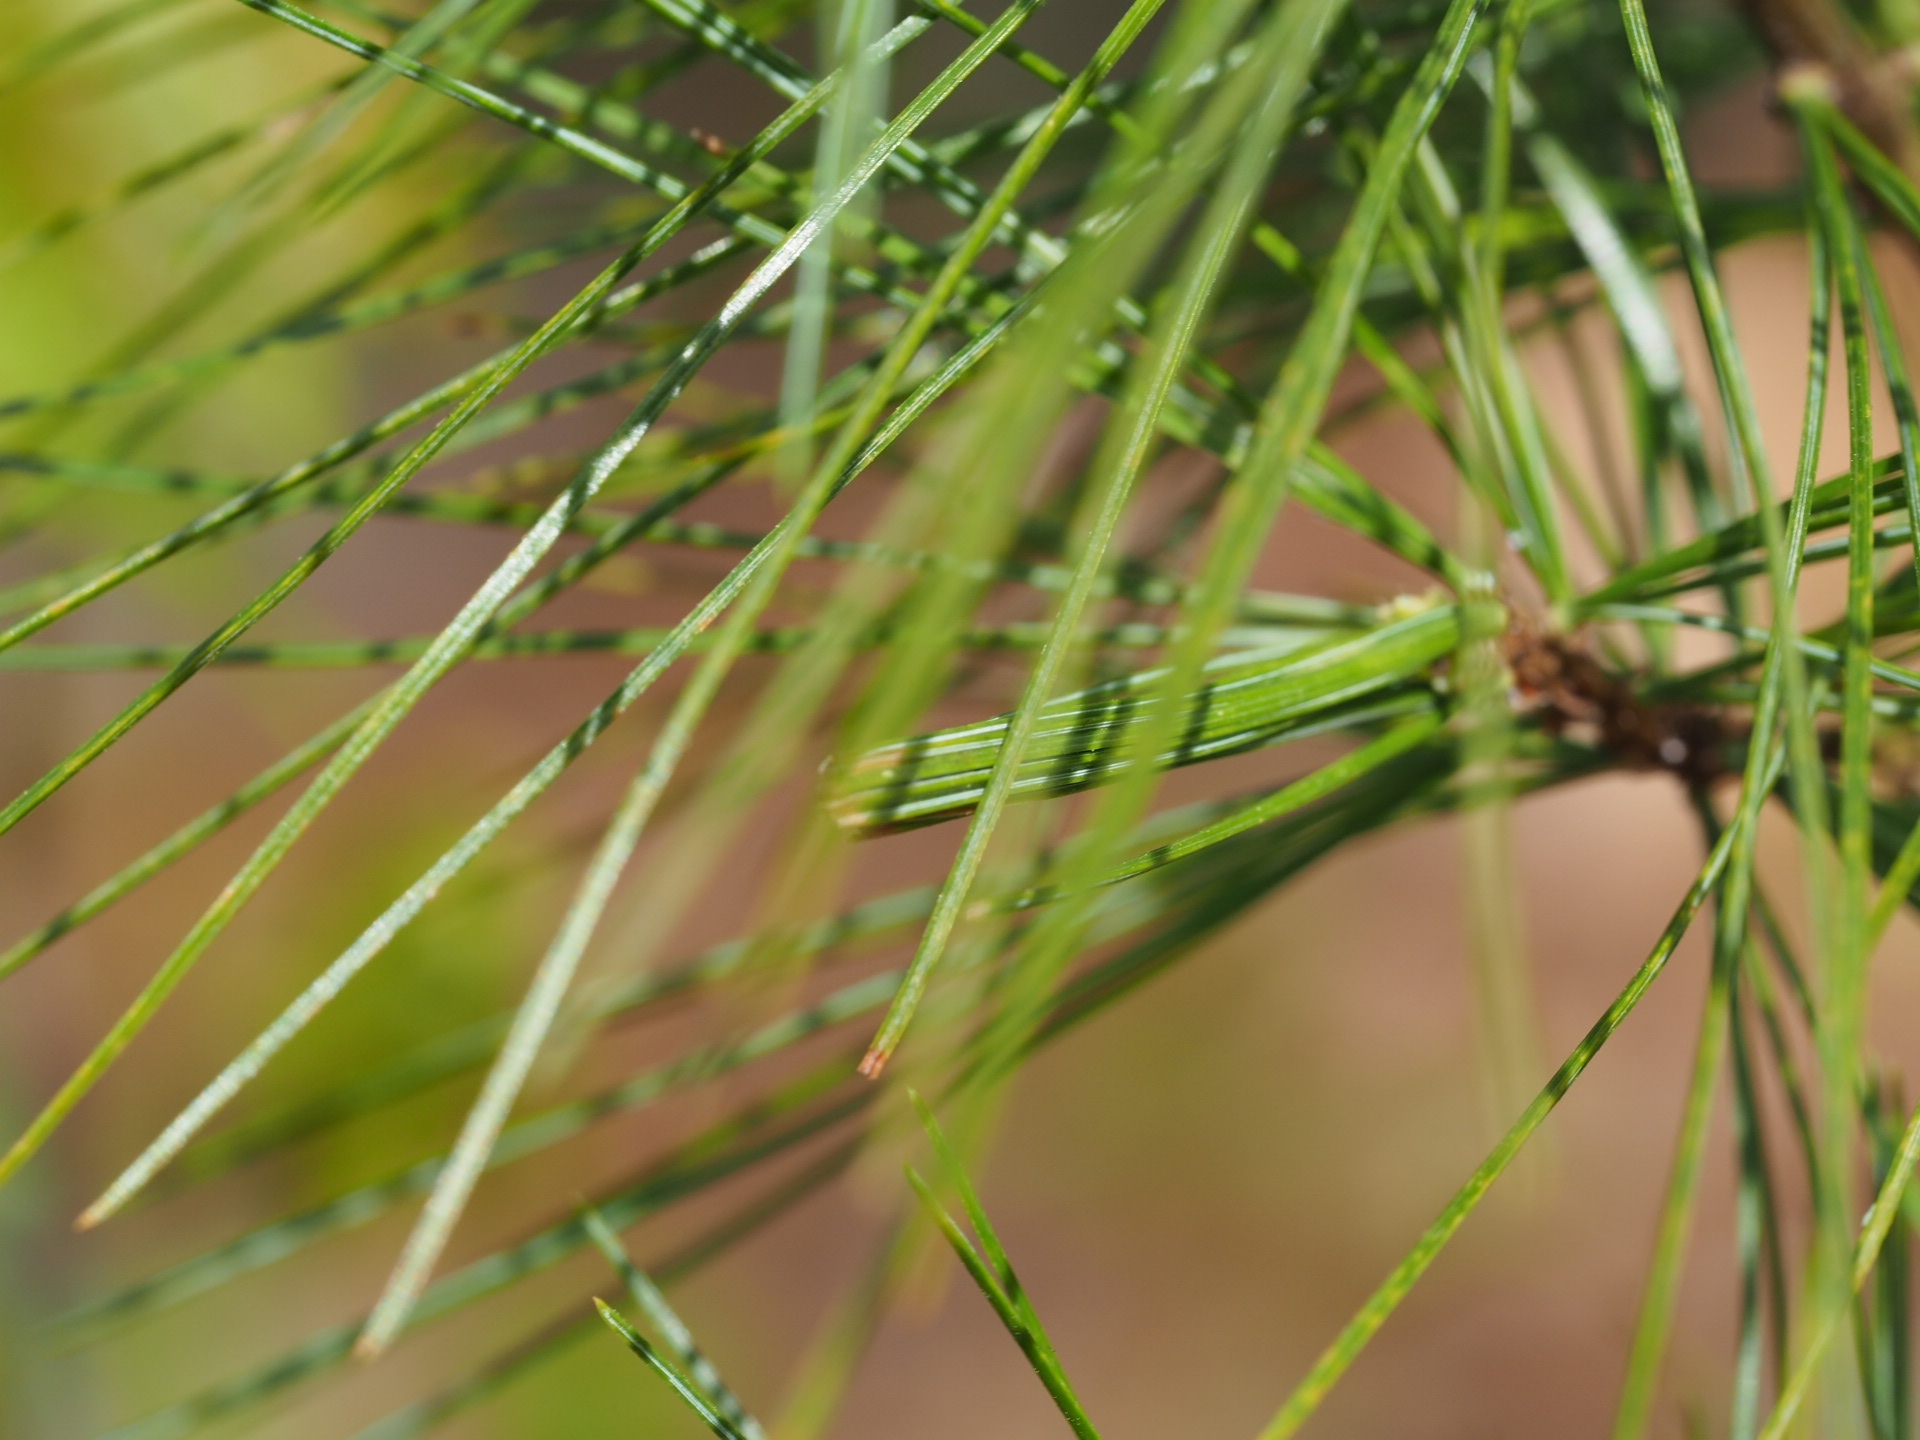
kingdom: Animalia
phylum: Arthropoda
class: Insecta
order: Lepidoptera
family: Tortricidae
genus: Argyrotaenia
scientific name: Argyrotaenia pinatubana
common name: Pine tube moth
